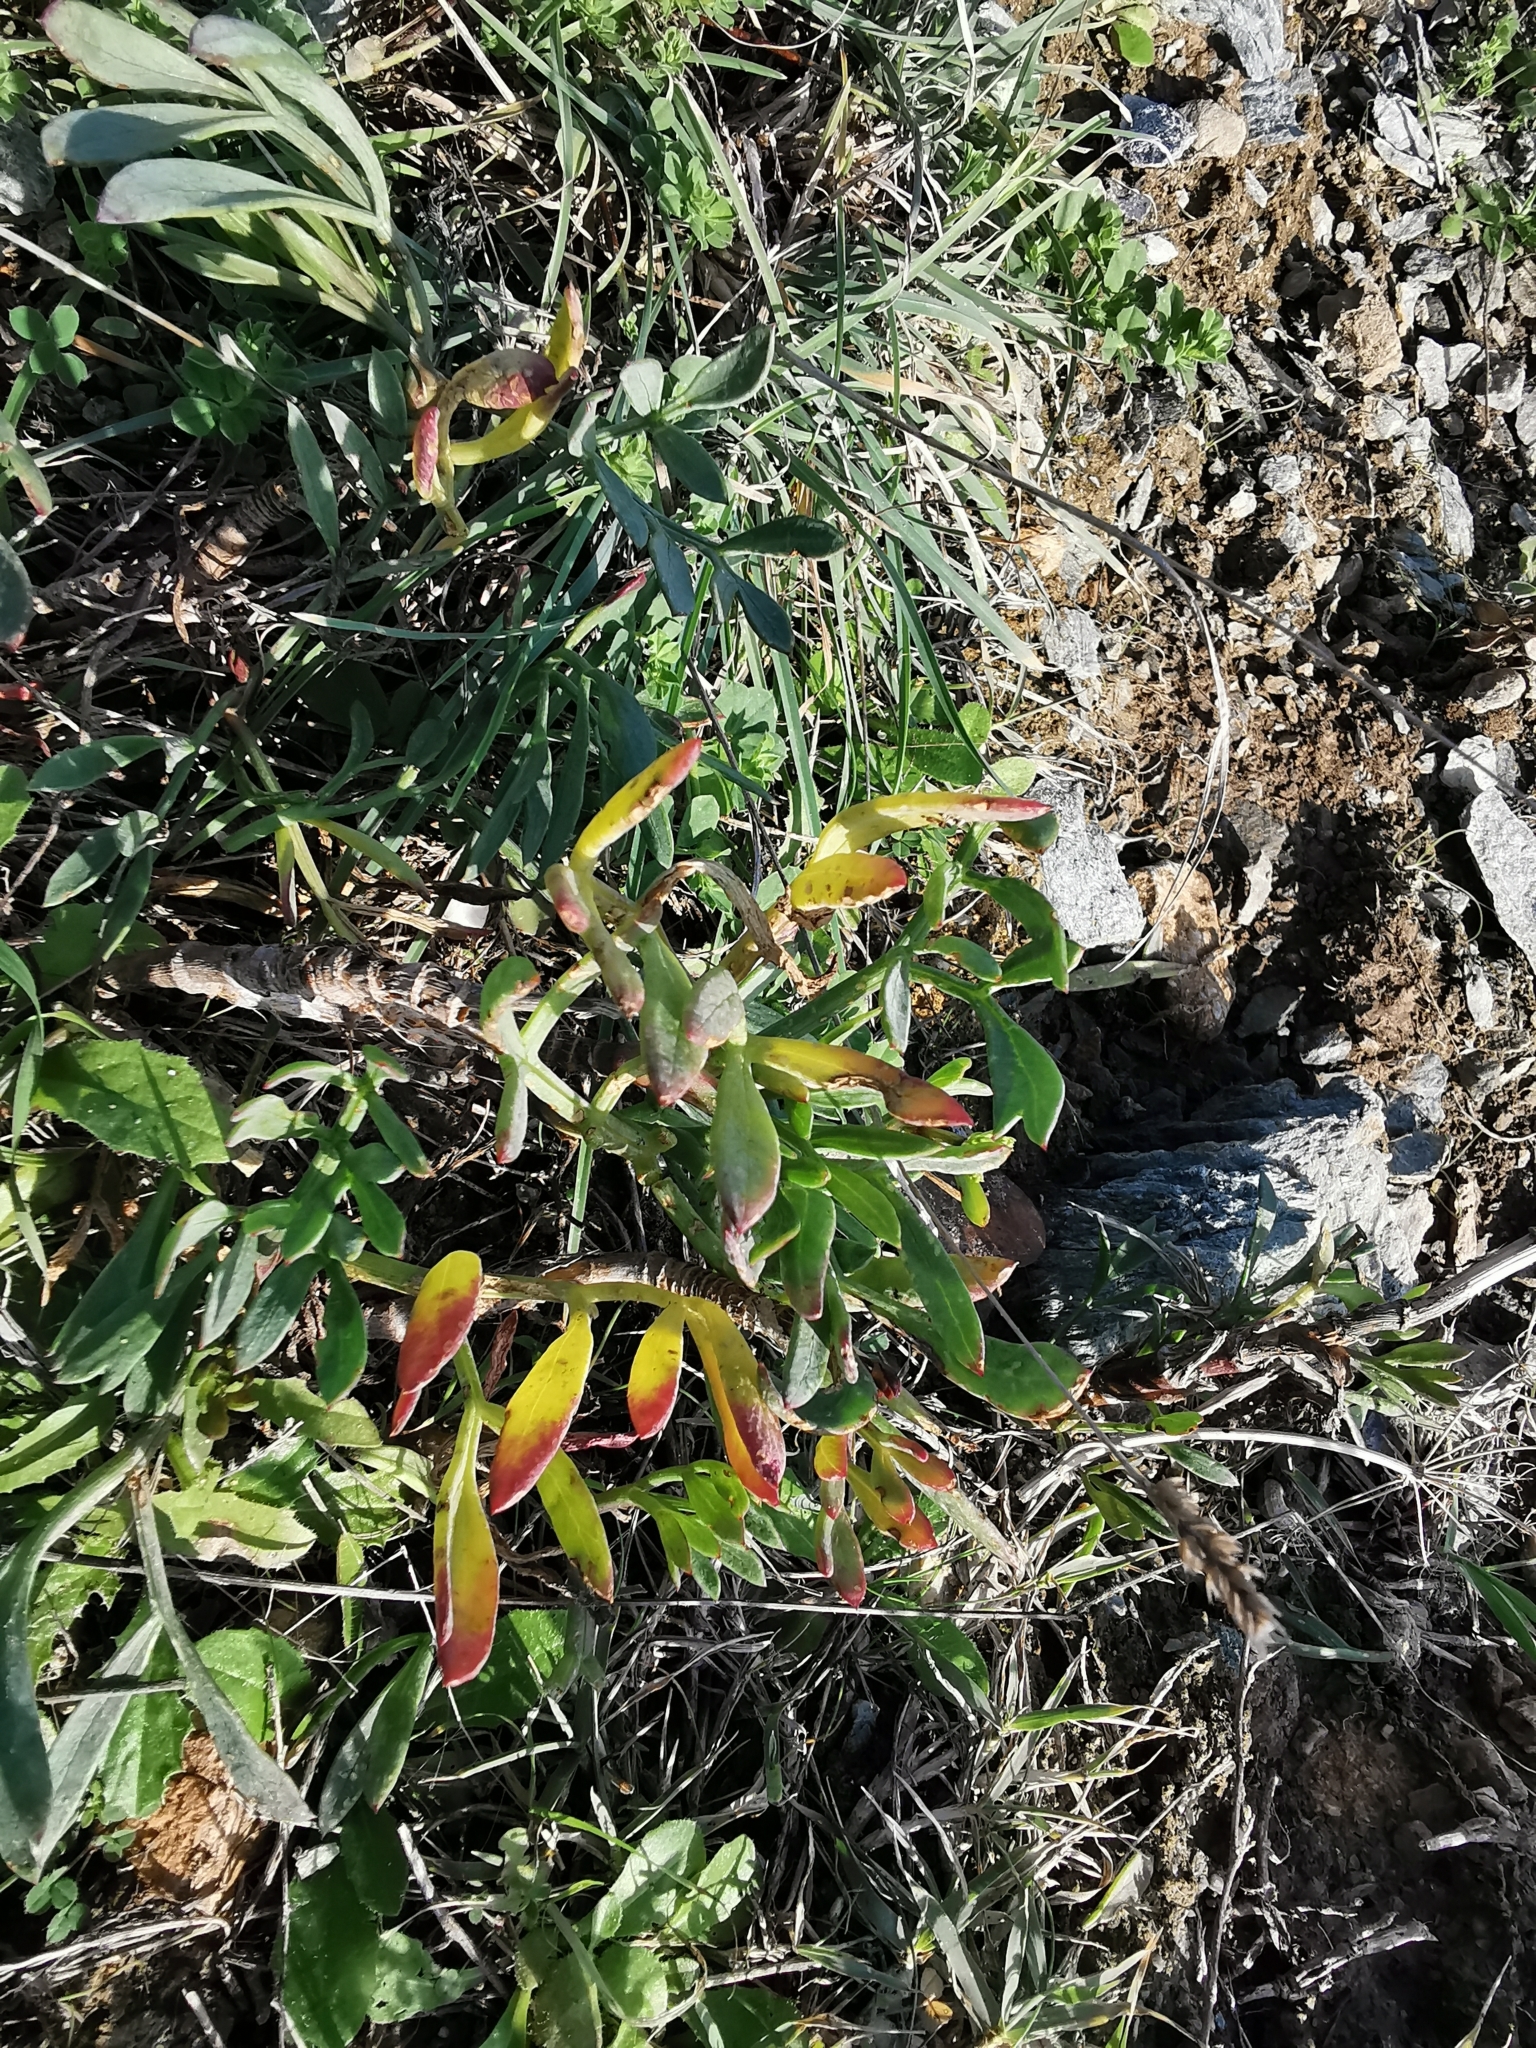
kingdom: Plantae
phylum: Tracheophyta
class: Magnoliopsida
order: Apiales
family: Apiaceae
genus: Crithmum
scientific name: Crithmum maritimum
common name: Rock samphire
